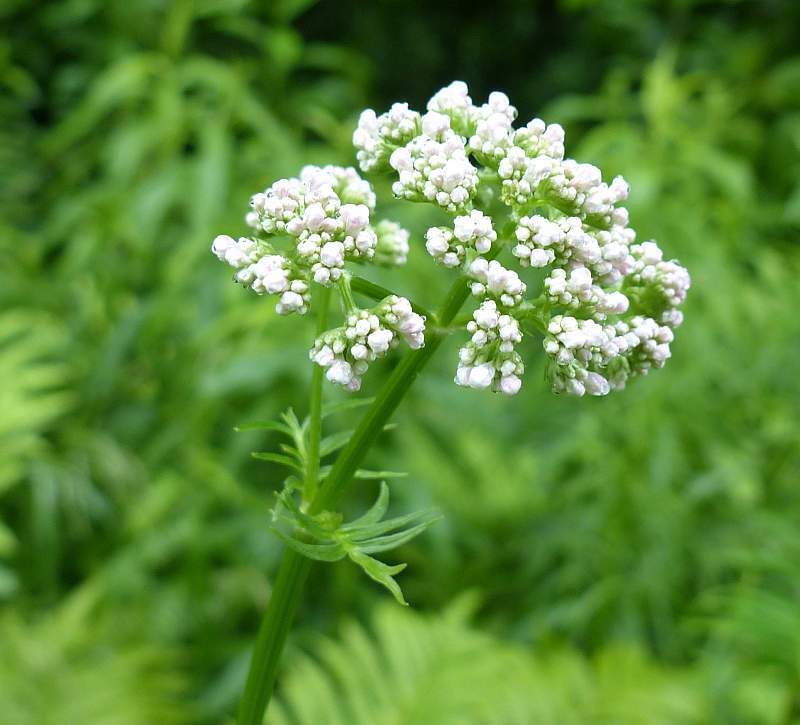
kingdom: Plantae
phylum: Tracheophyta
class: Magnoliopsida
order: Dipsacales
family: Caprifoliaceae
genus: Valeriana
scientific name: Valeriana officinalis
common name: Common valerian
